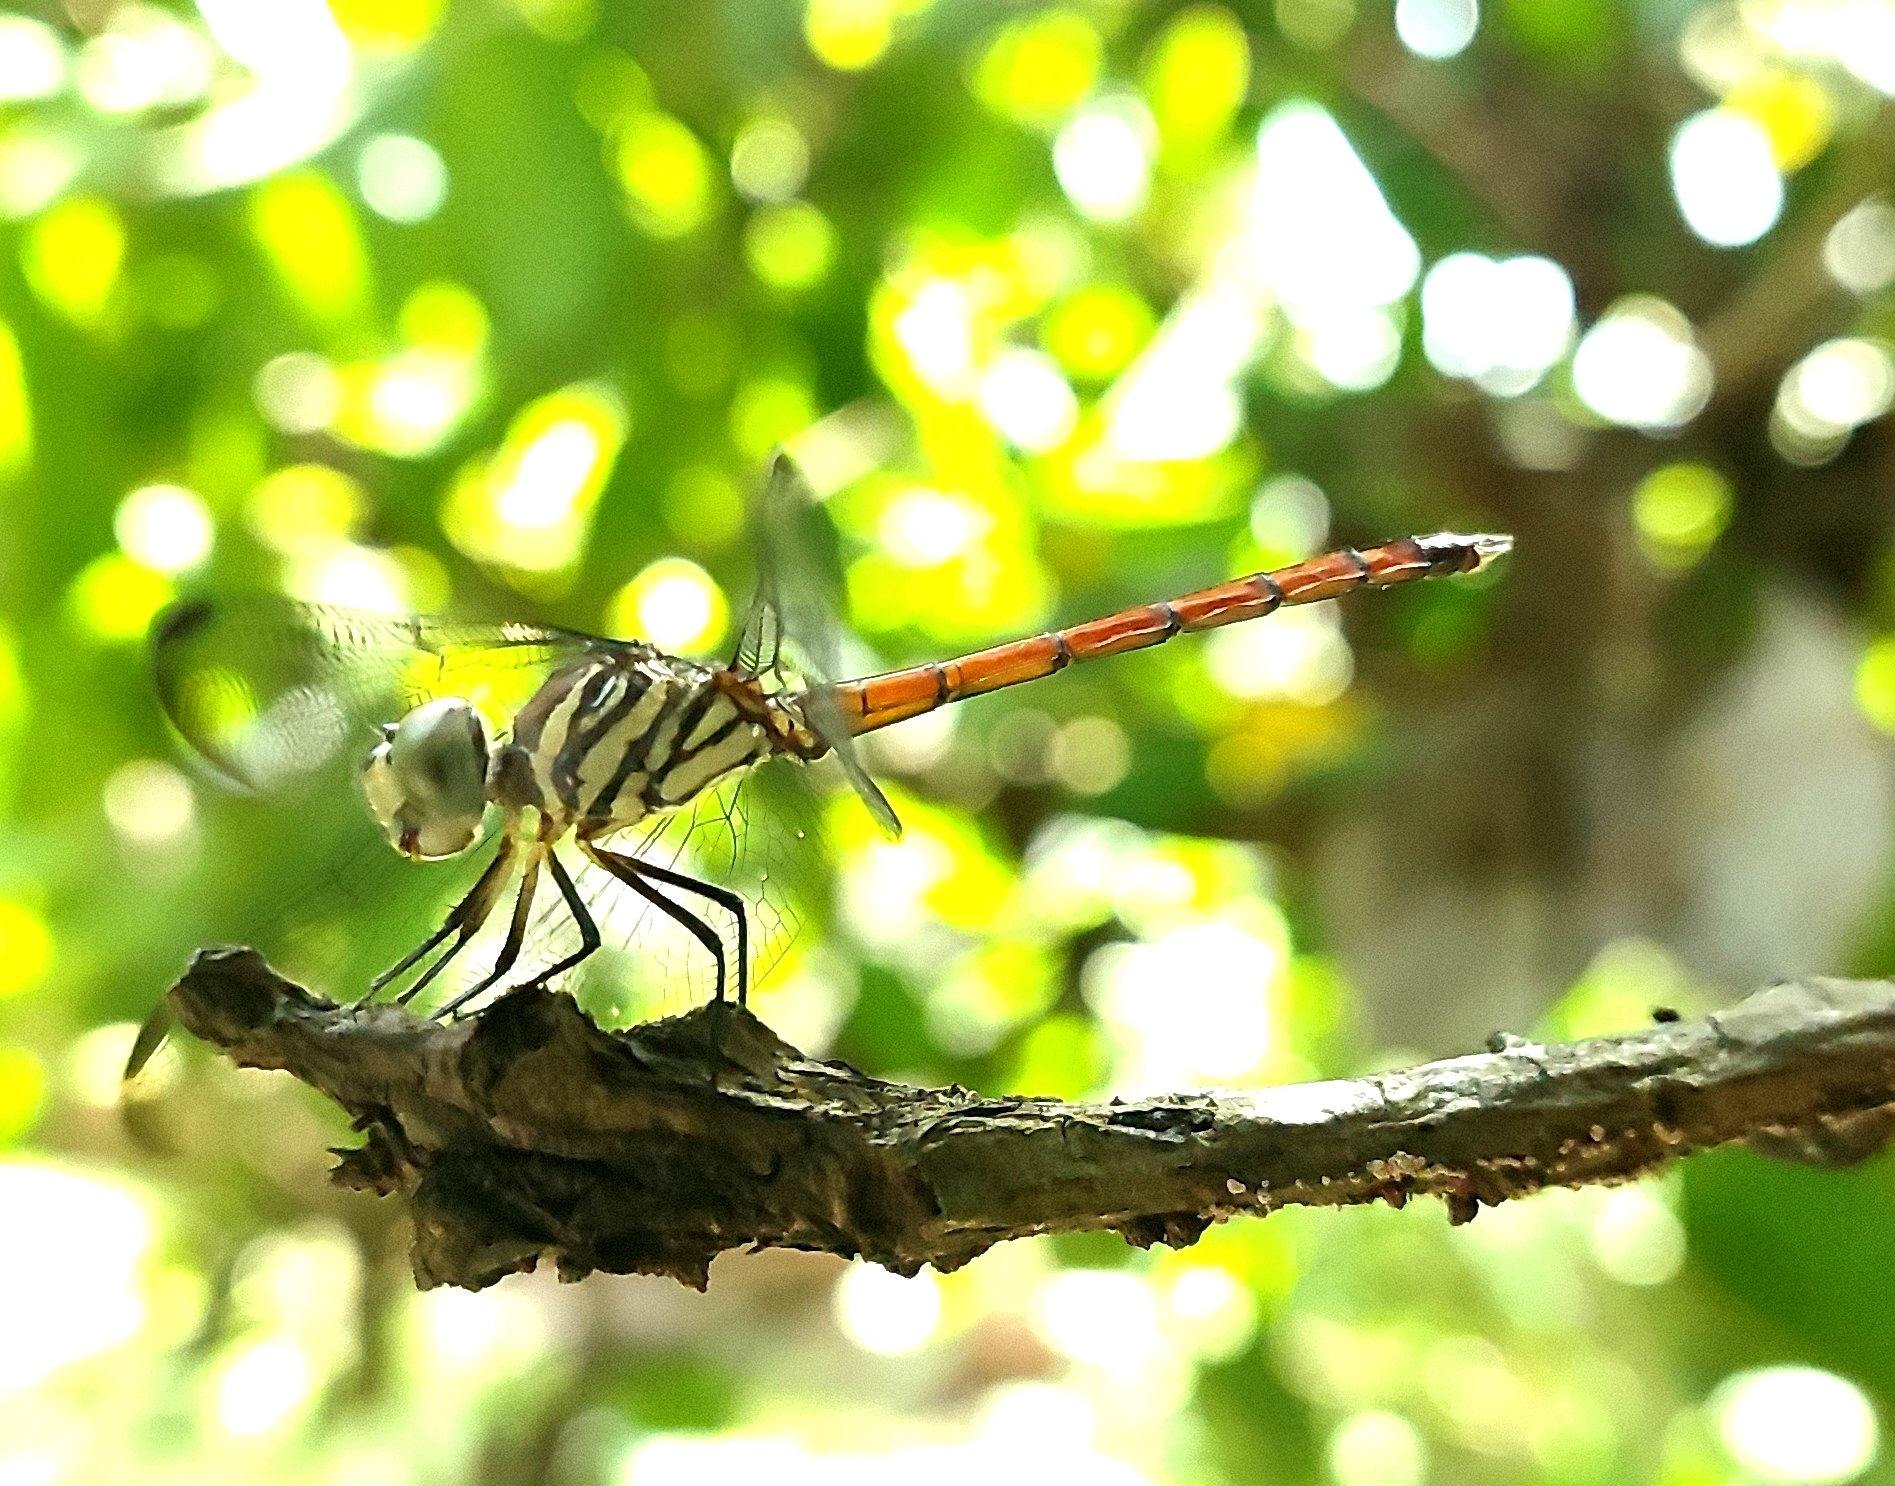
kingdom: Animalia
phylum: Arthropoda
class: Insecta
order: Odonata
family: Libellulidae
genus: Lathrecista
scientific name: Lathrecista asiatica
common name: Scarlet grenadier
